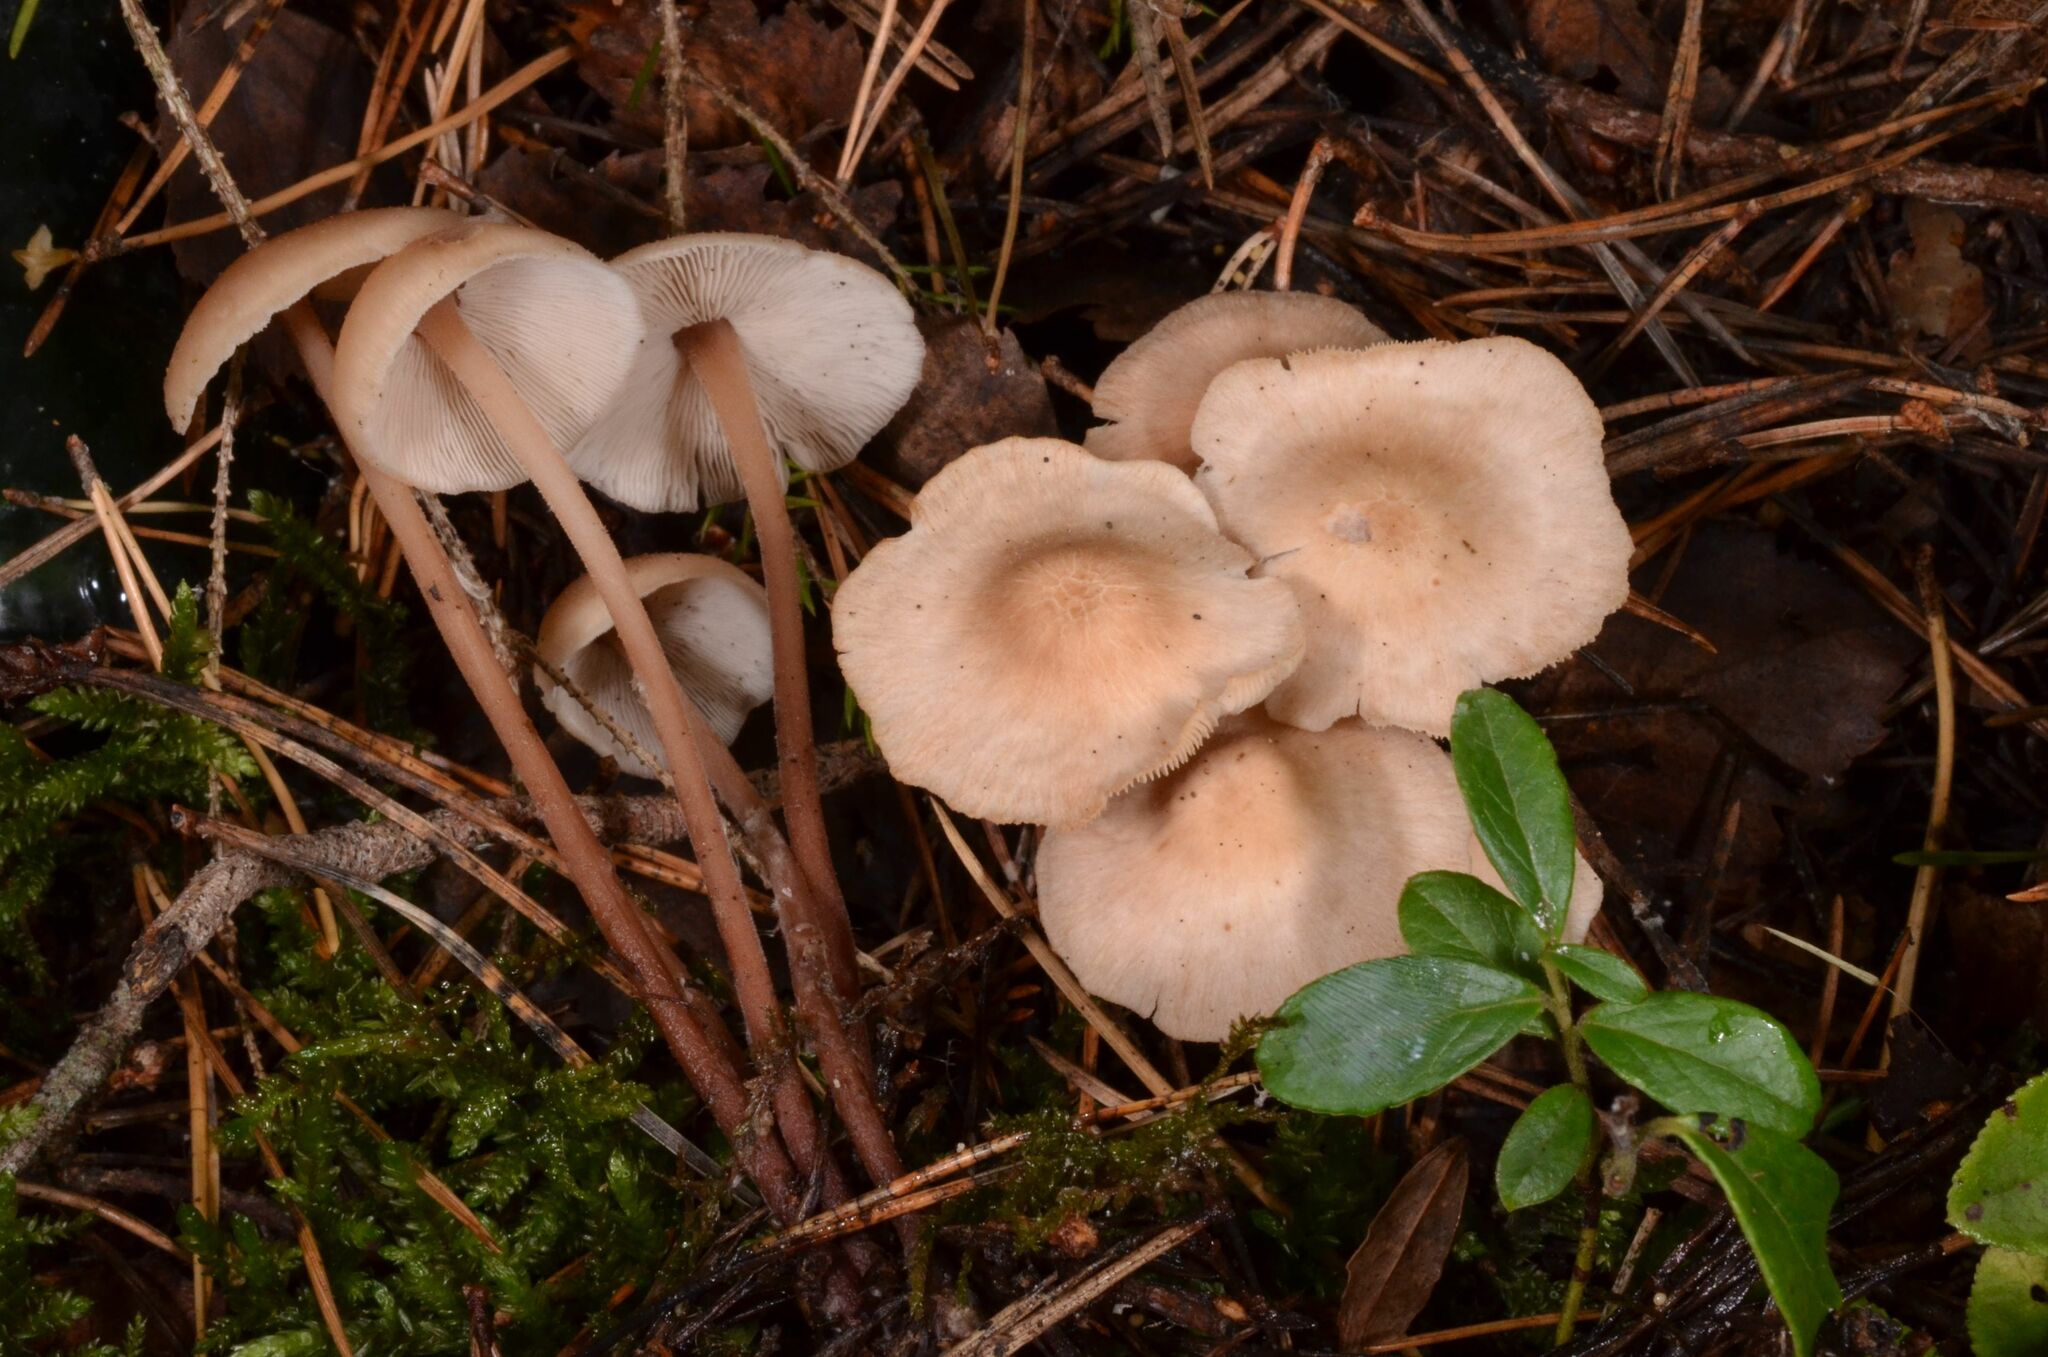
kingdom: Fungi
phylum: Basidiomycota
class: Agaricomycetes
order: Agaricales
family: Omphalotaceae
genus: Collybiopsis
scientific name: Collybiopsis confluens
